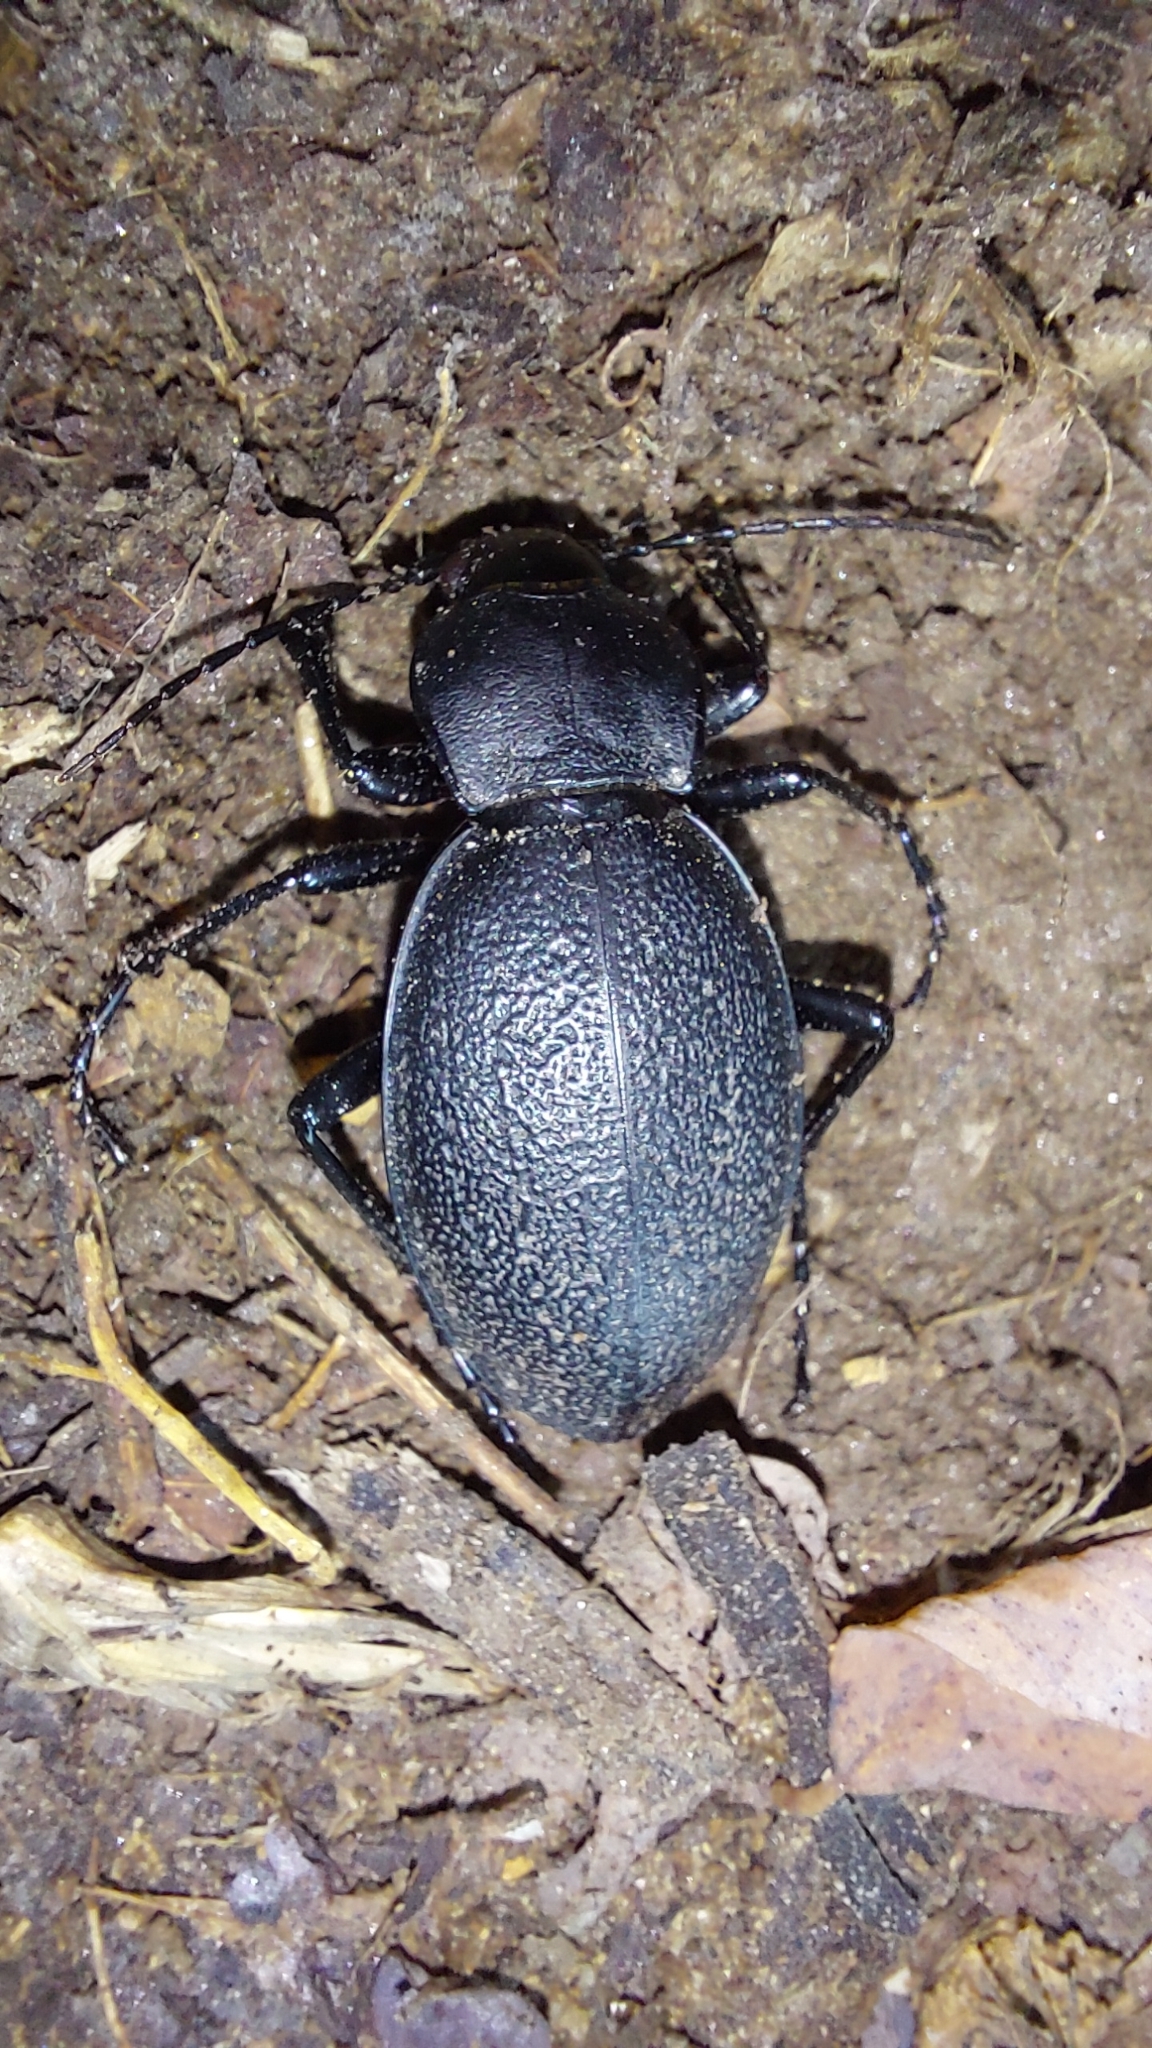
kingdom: Animalia
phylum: Arthropoda
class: Insecta
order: Coleoptera
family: Carabidae
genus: Carabus
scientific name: Carabus coriaceus
